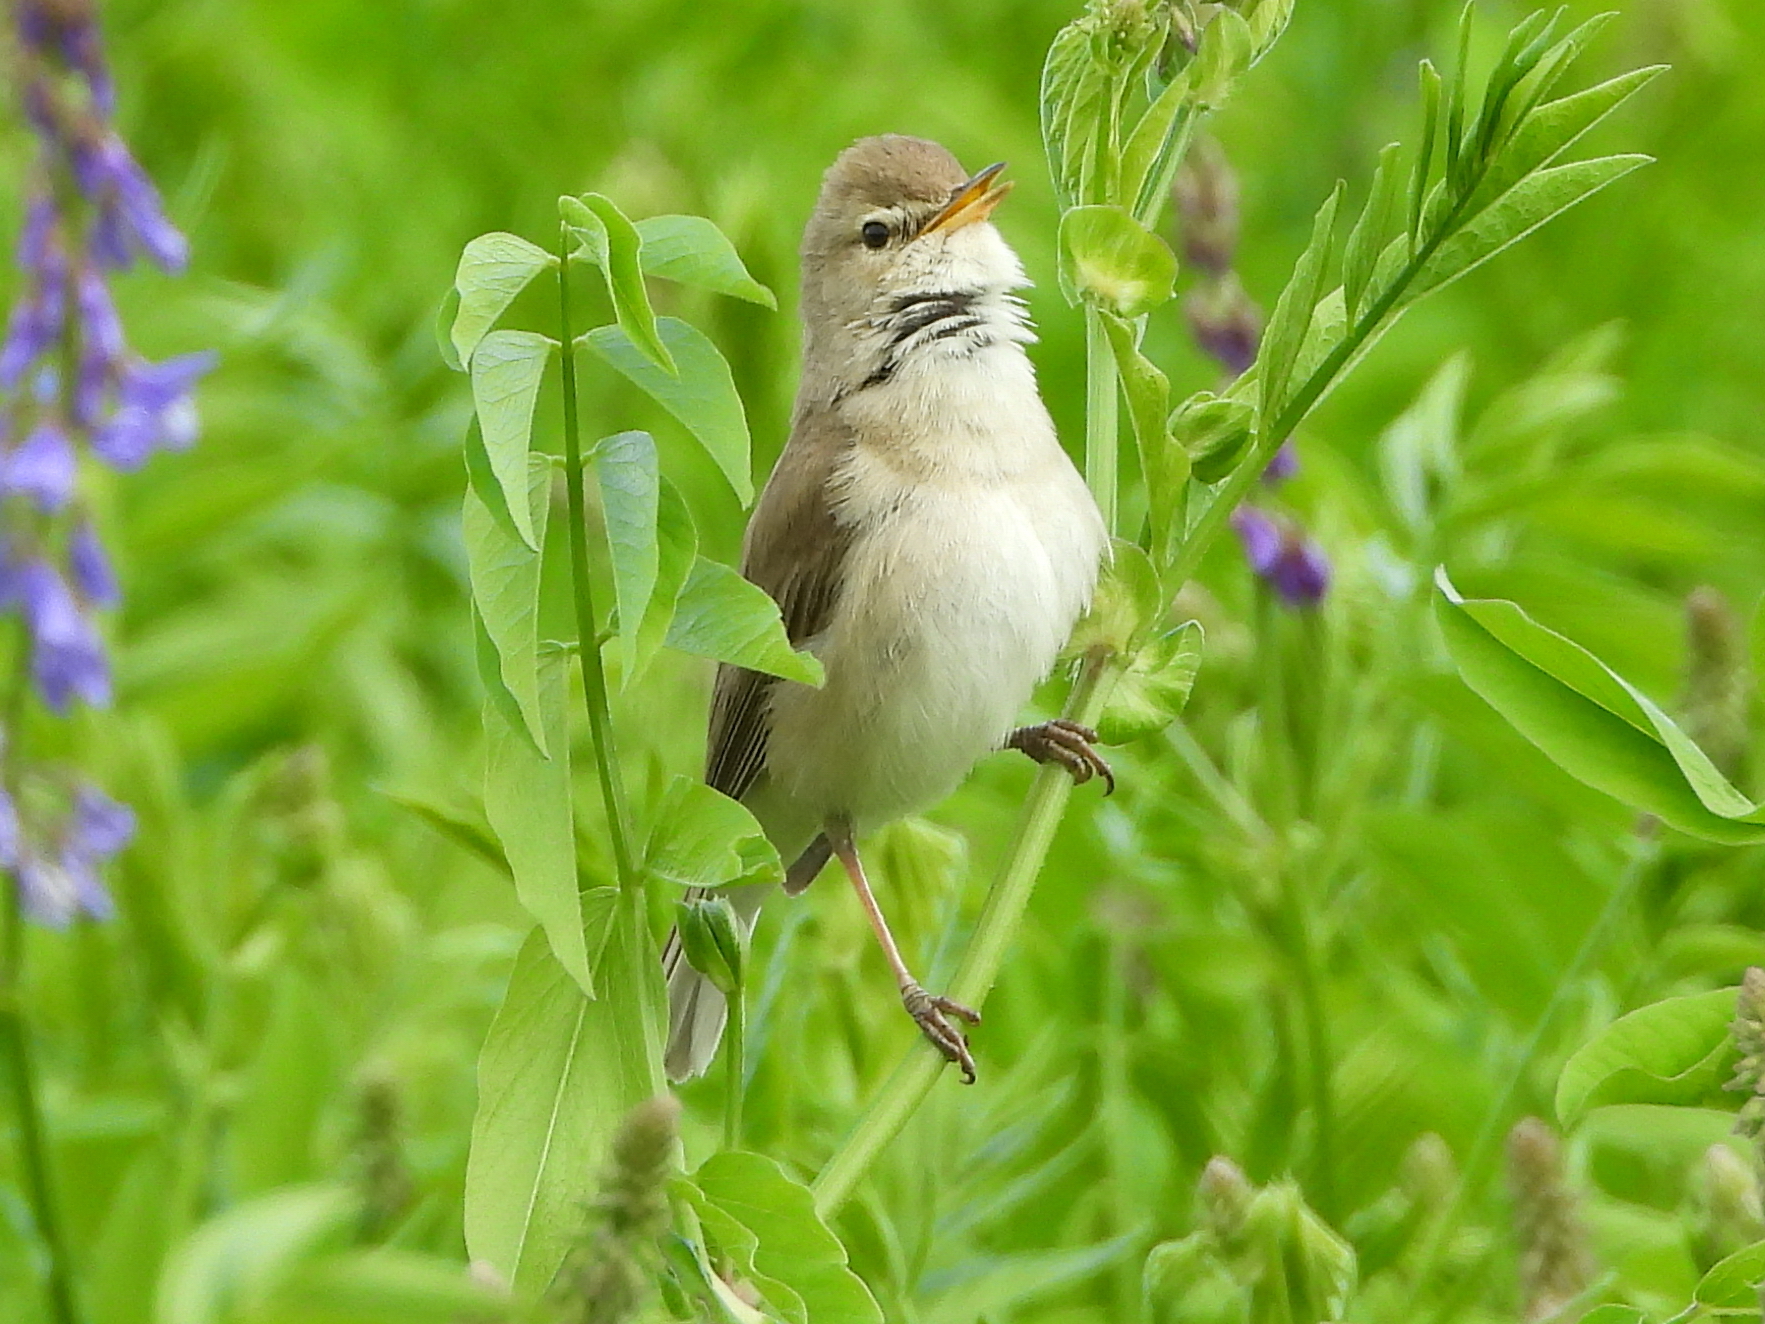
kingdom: Animalia
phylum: Chordata
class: Aves
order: Passeriformes
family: Acrocephalidae
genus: Iduna
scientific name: Iduna caligata
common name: Booted warbler
